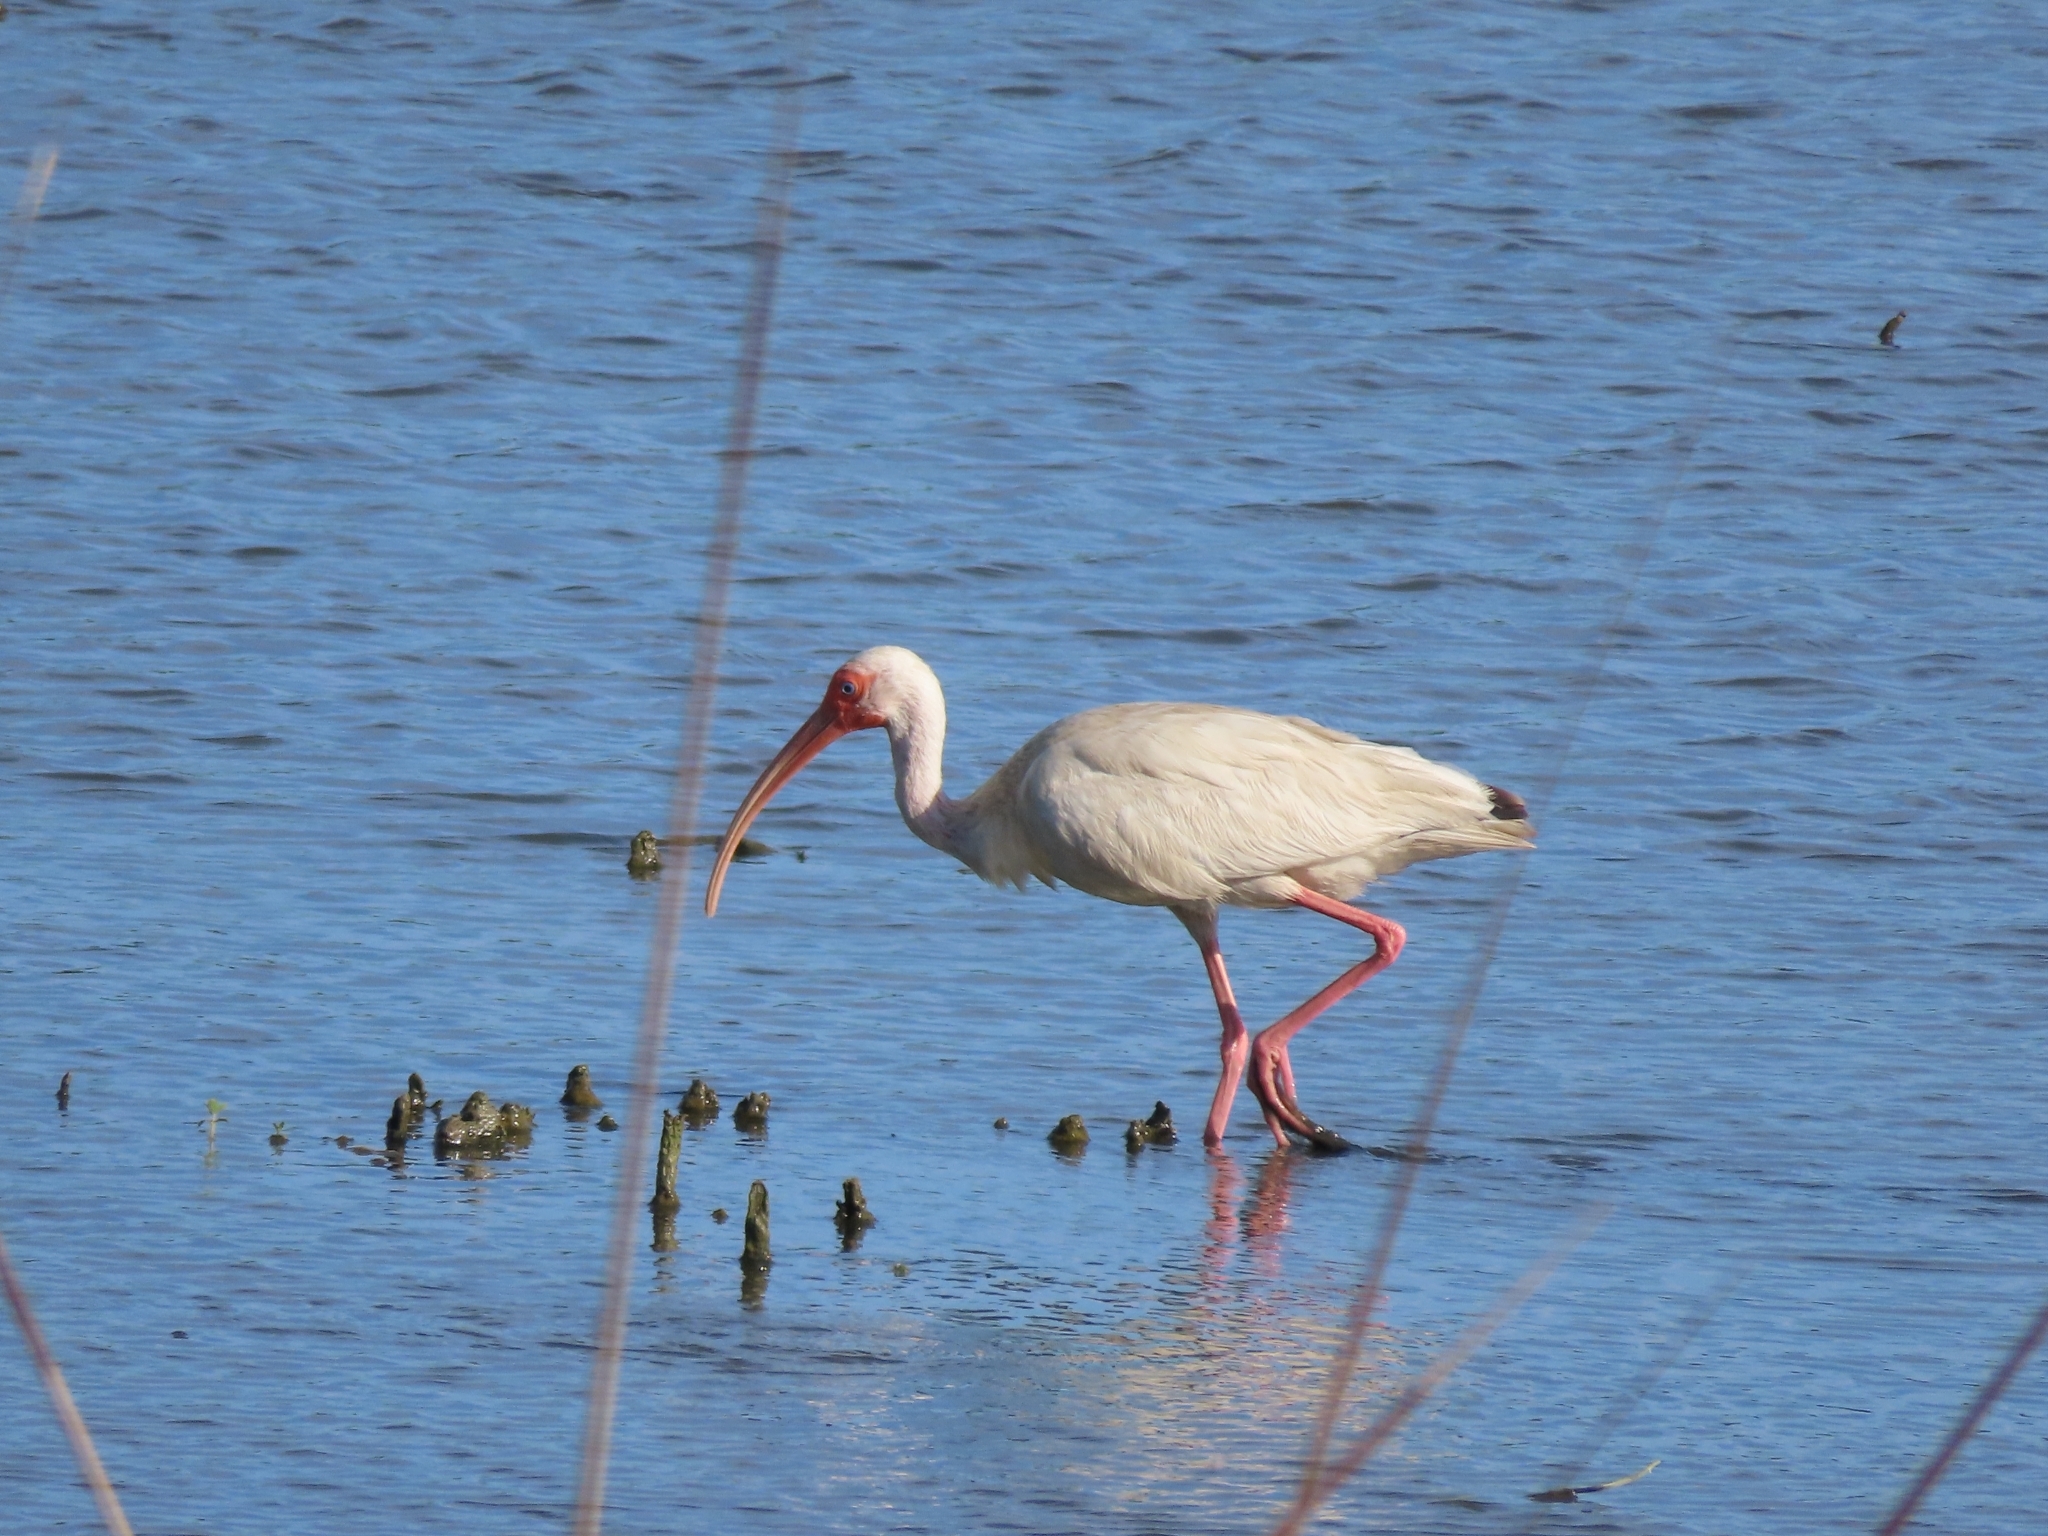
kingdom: Animalia
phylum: Chordata
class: Aves
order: Pelecaniformes
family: Threskiornithidae
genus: Eudocimus
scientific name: Eudocimus albus
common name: White ibis
